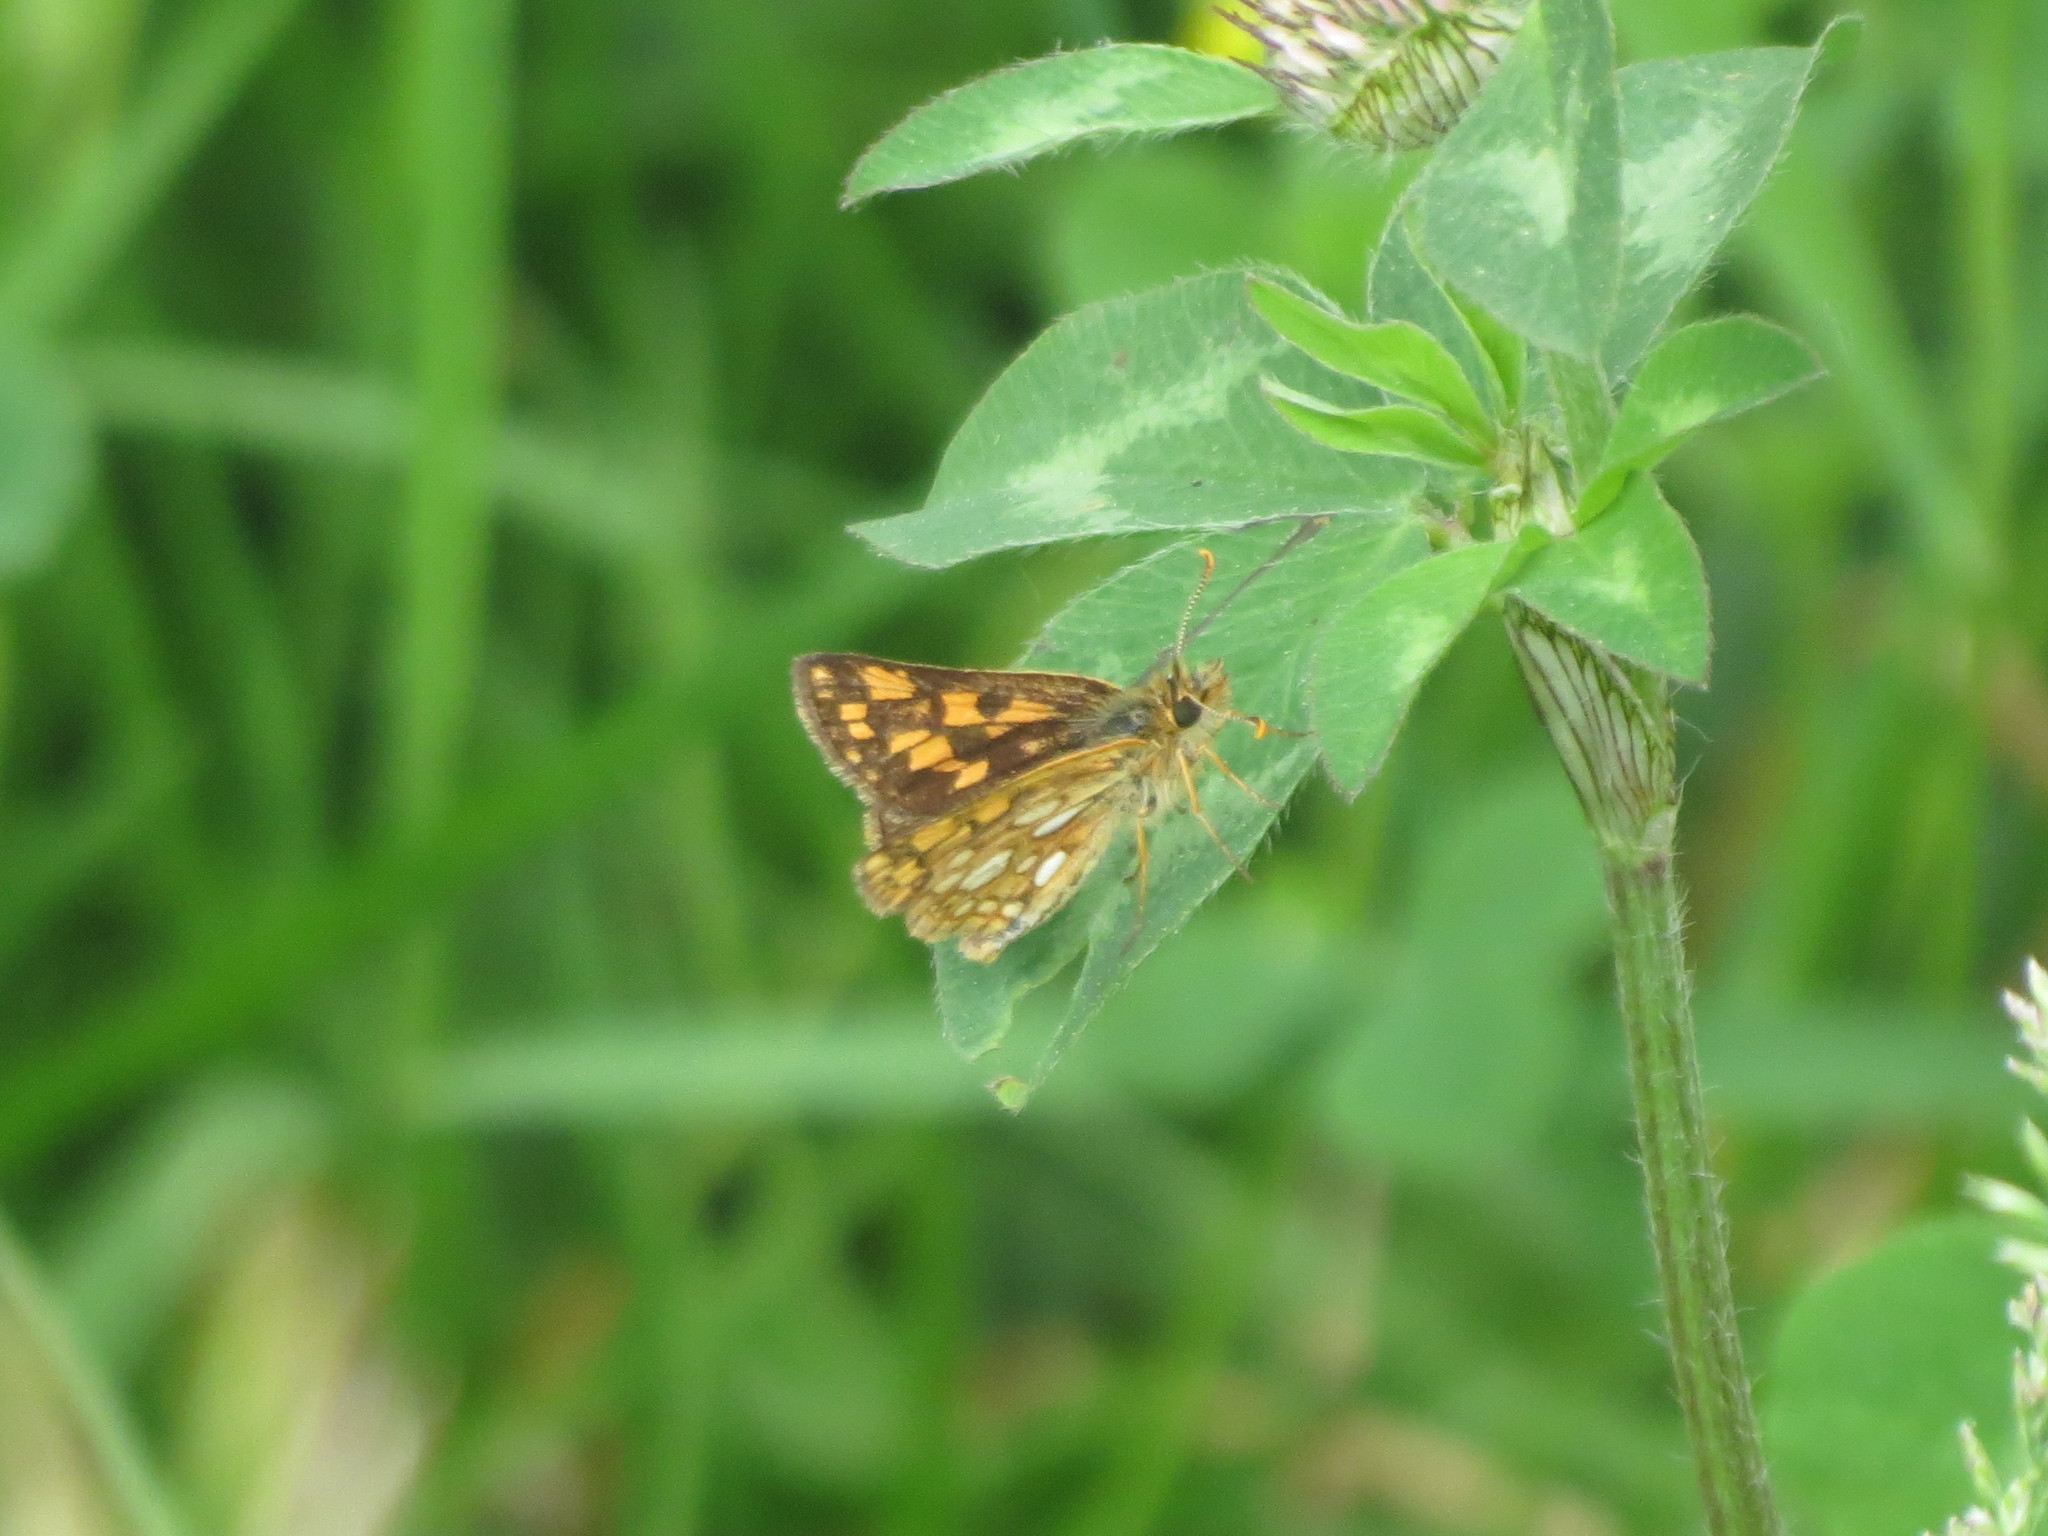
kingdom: Animalia
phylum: Arthropoda
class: Insecta
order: Lepidoptera
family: Hesperiidae
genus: Carterocephalus
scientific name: Carterocephalus mandan
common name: Arctic skipperling
